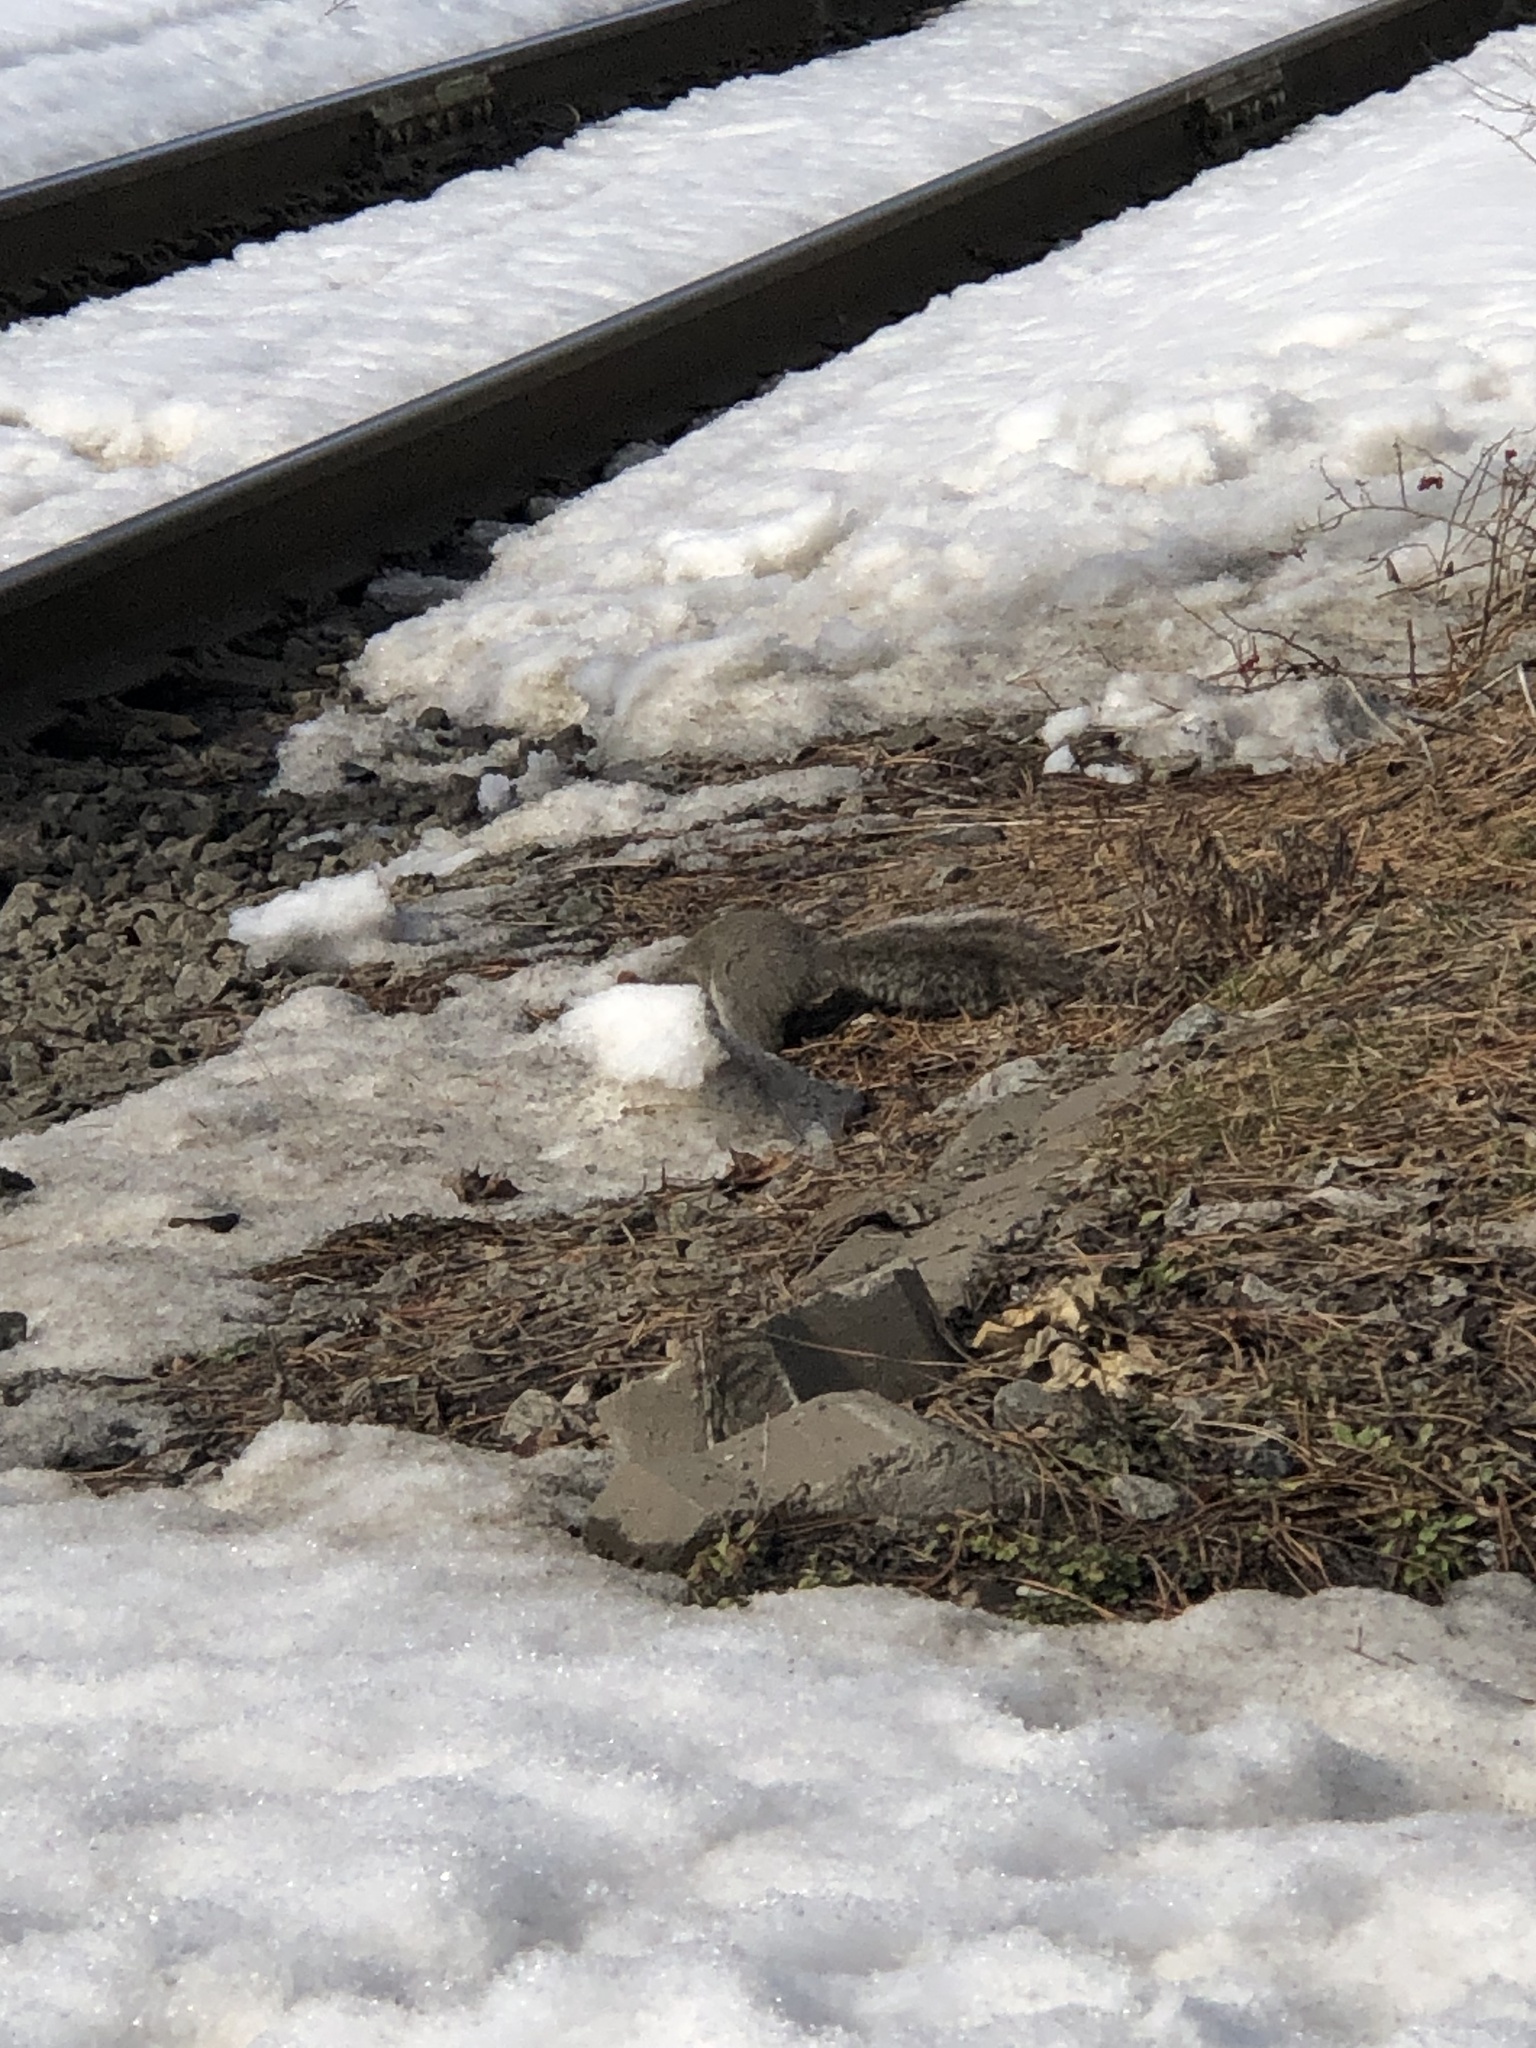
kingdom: Animalia
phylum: Chordata
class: Mammalia
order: Rodentia
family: Sciuridae
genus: Sciurus
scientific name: Sciurus carolinensis
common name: Eastern gray squirrel
